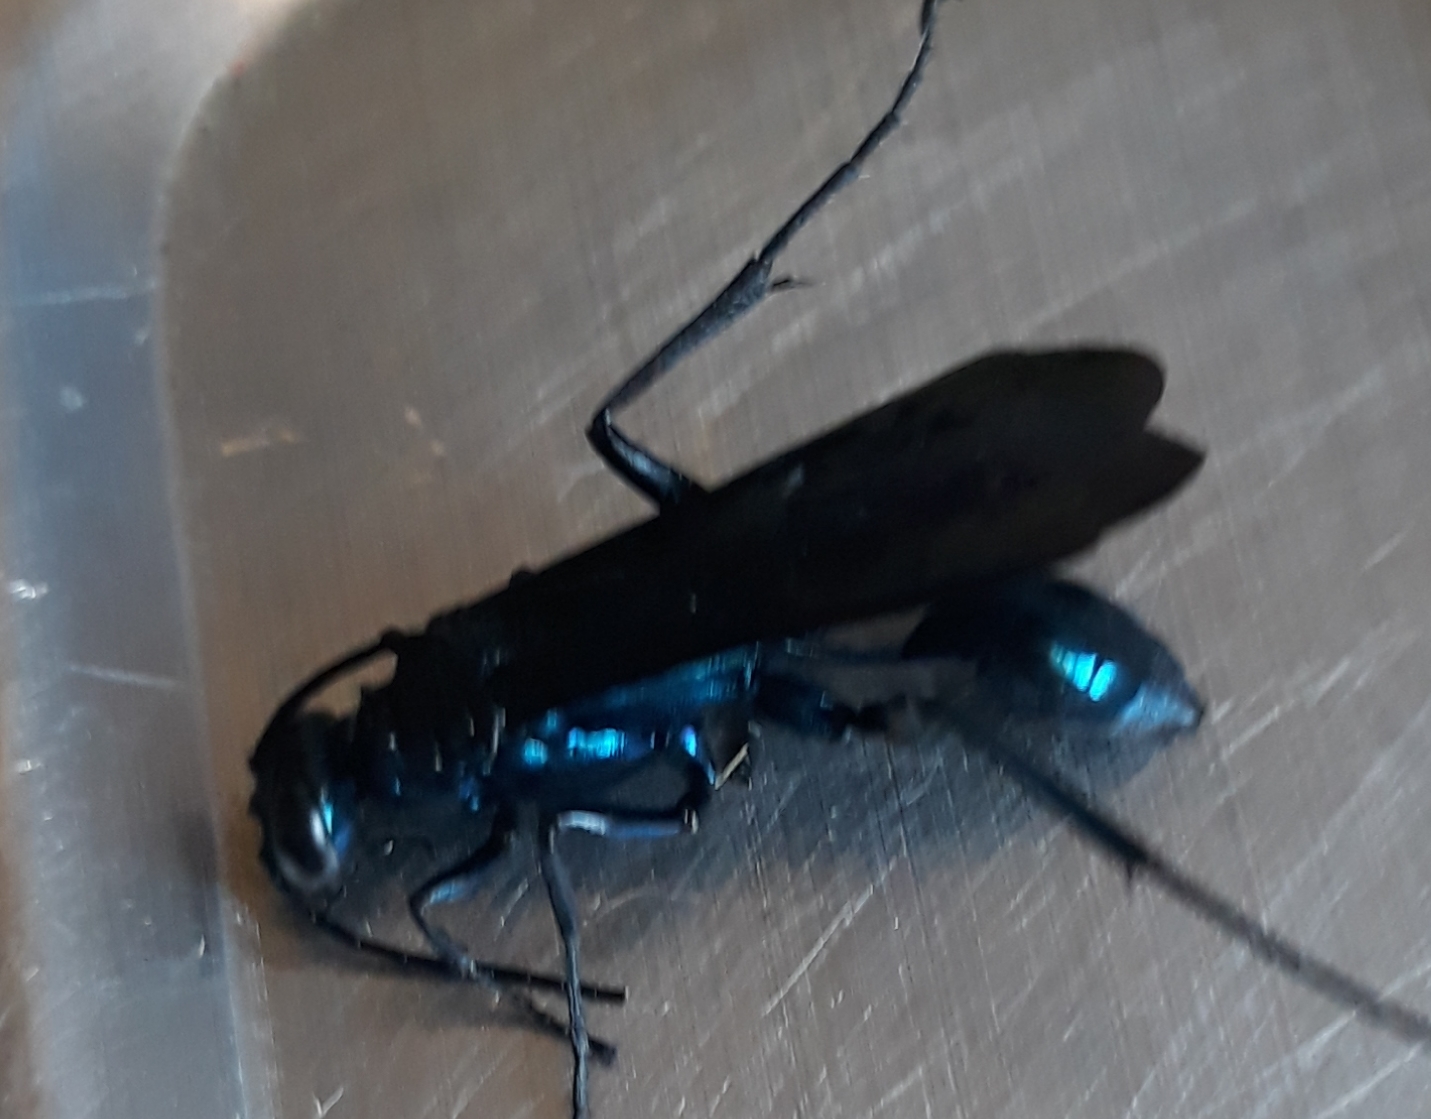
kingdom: Animalia
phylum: Arthropoda
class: Insecta
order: Hymenoptera
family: Sphecidae
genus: Chalybion
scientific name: Chalybion californicum
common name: Mud dauber
